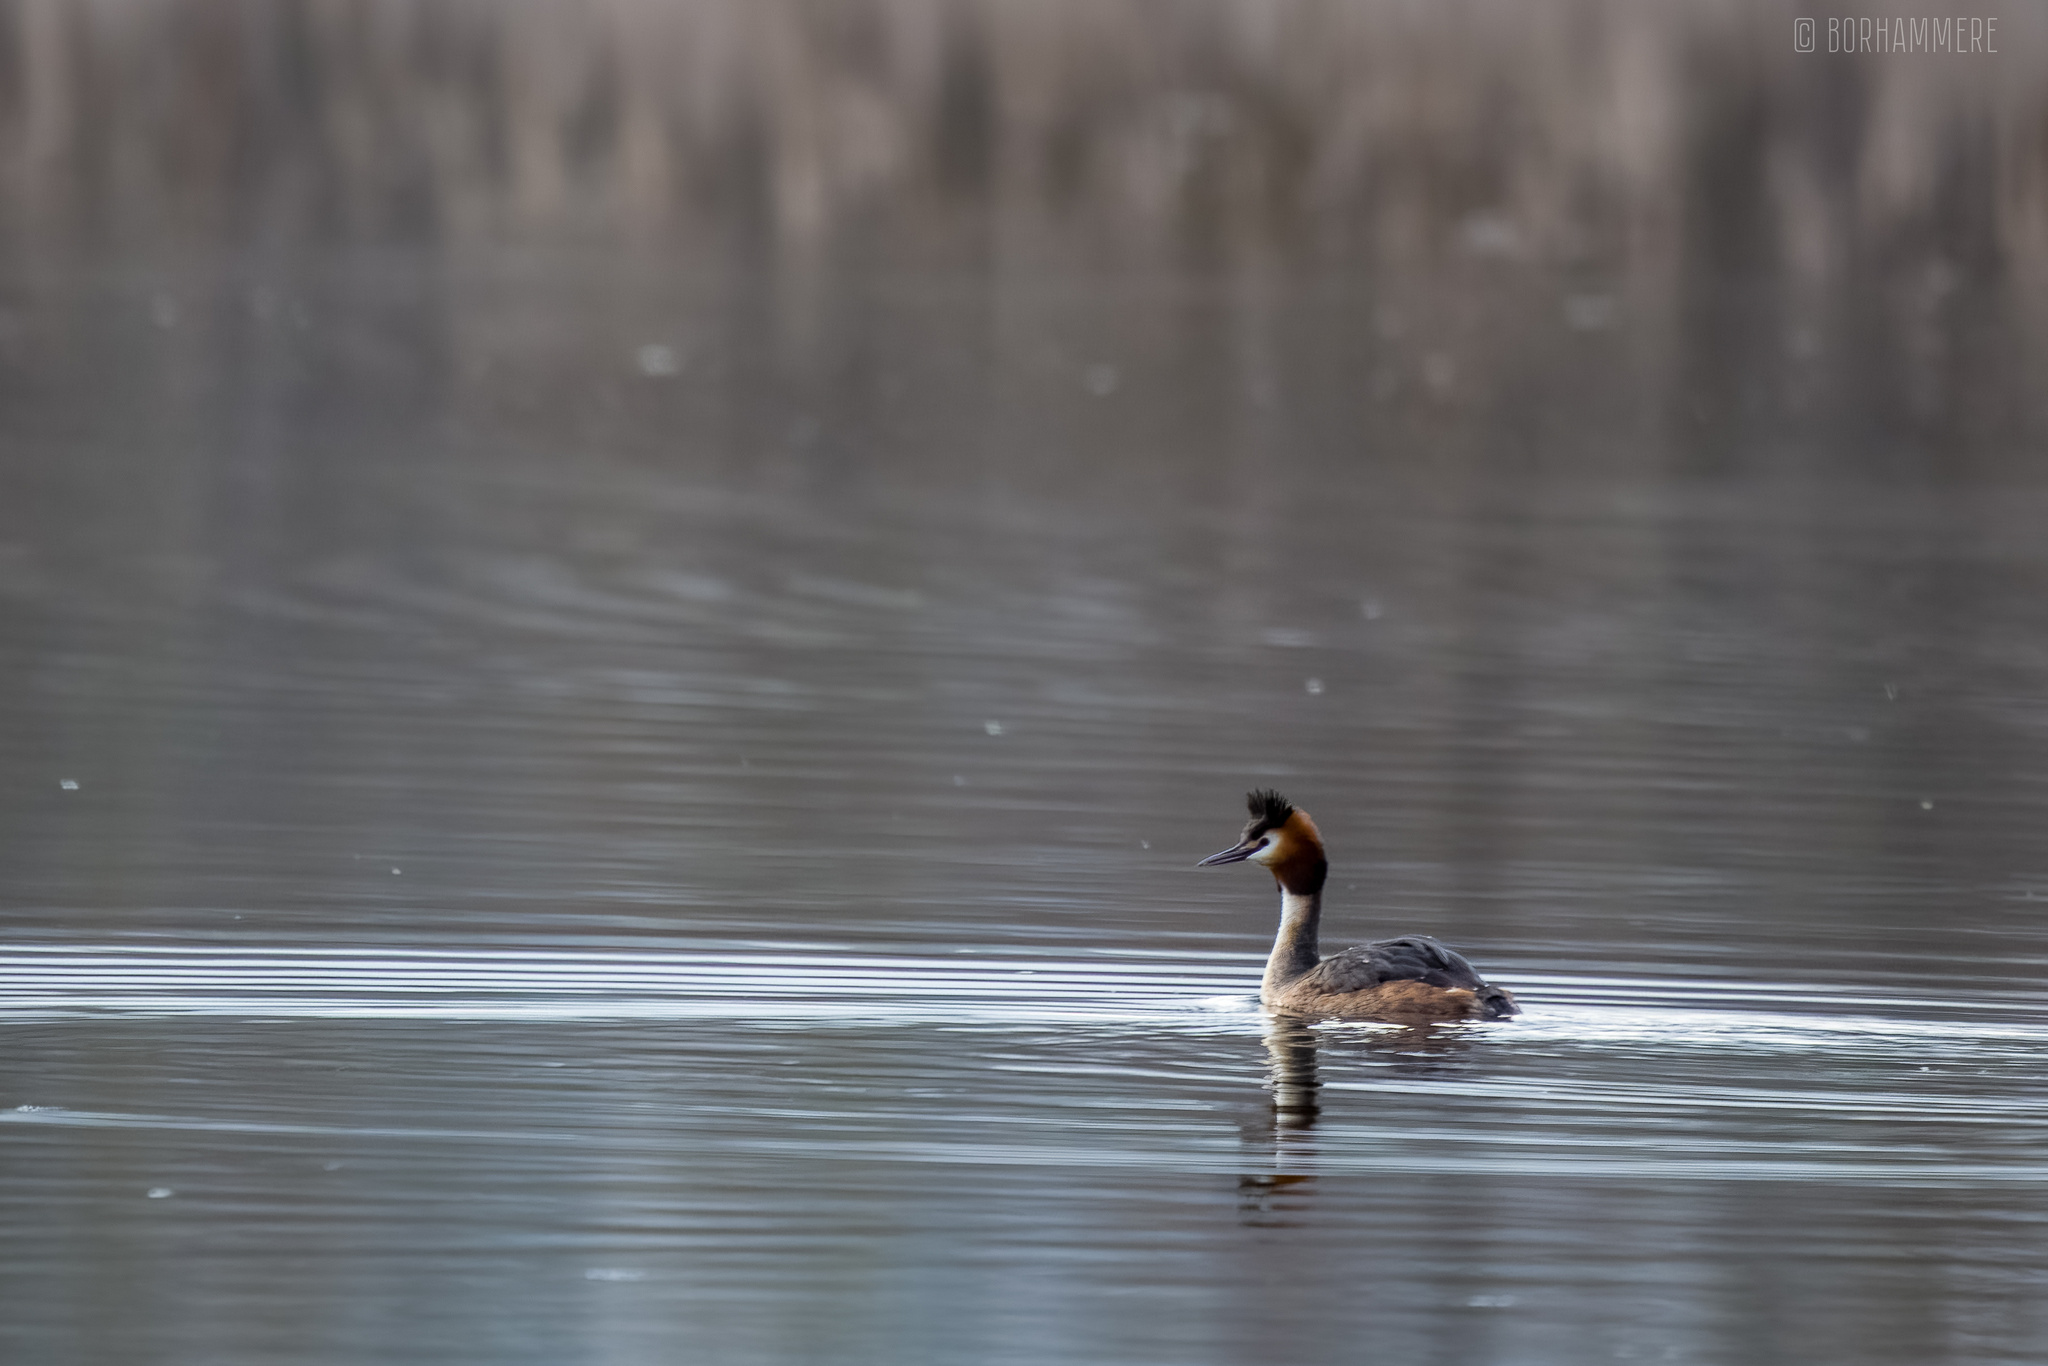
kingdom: Animalia
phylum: Chordata
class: Aves
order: Podicipediformes
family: Podicipedidae
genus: Podiceps
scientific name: Podiceps cristatus
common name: Great crested grebe
